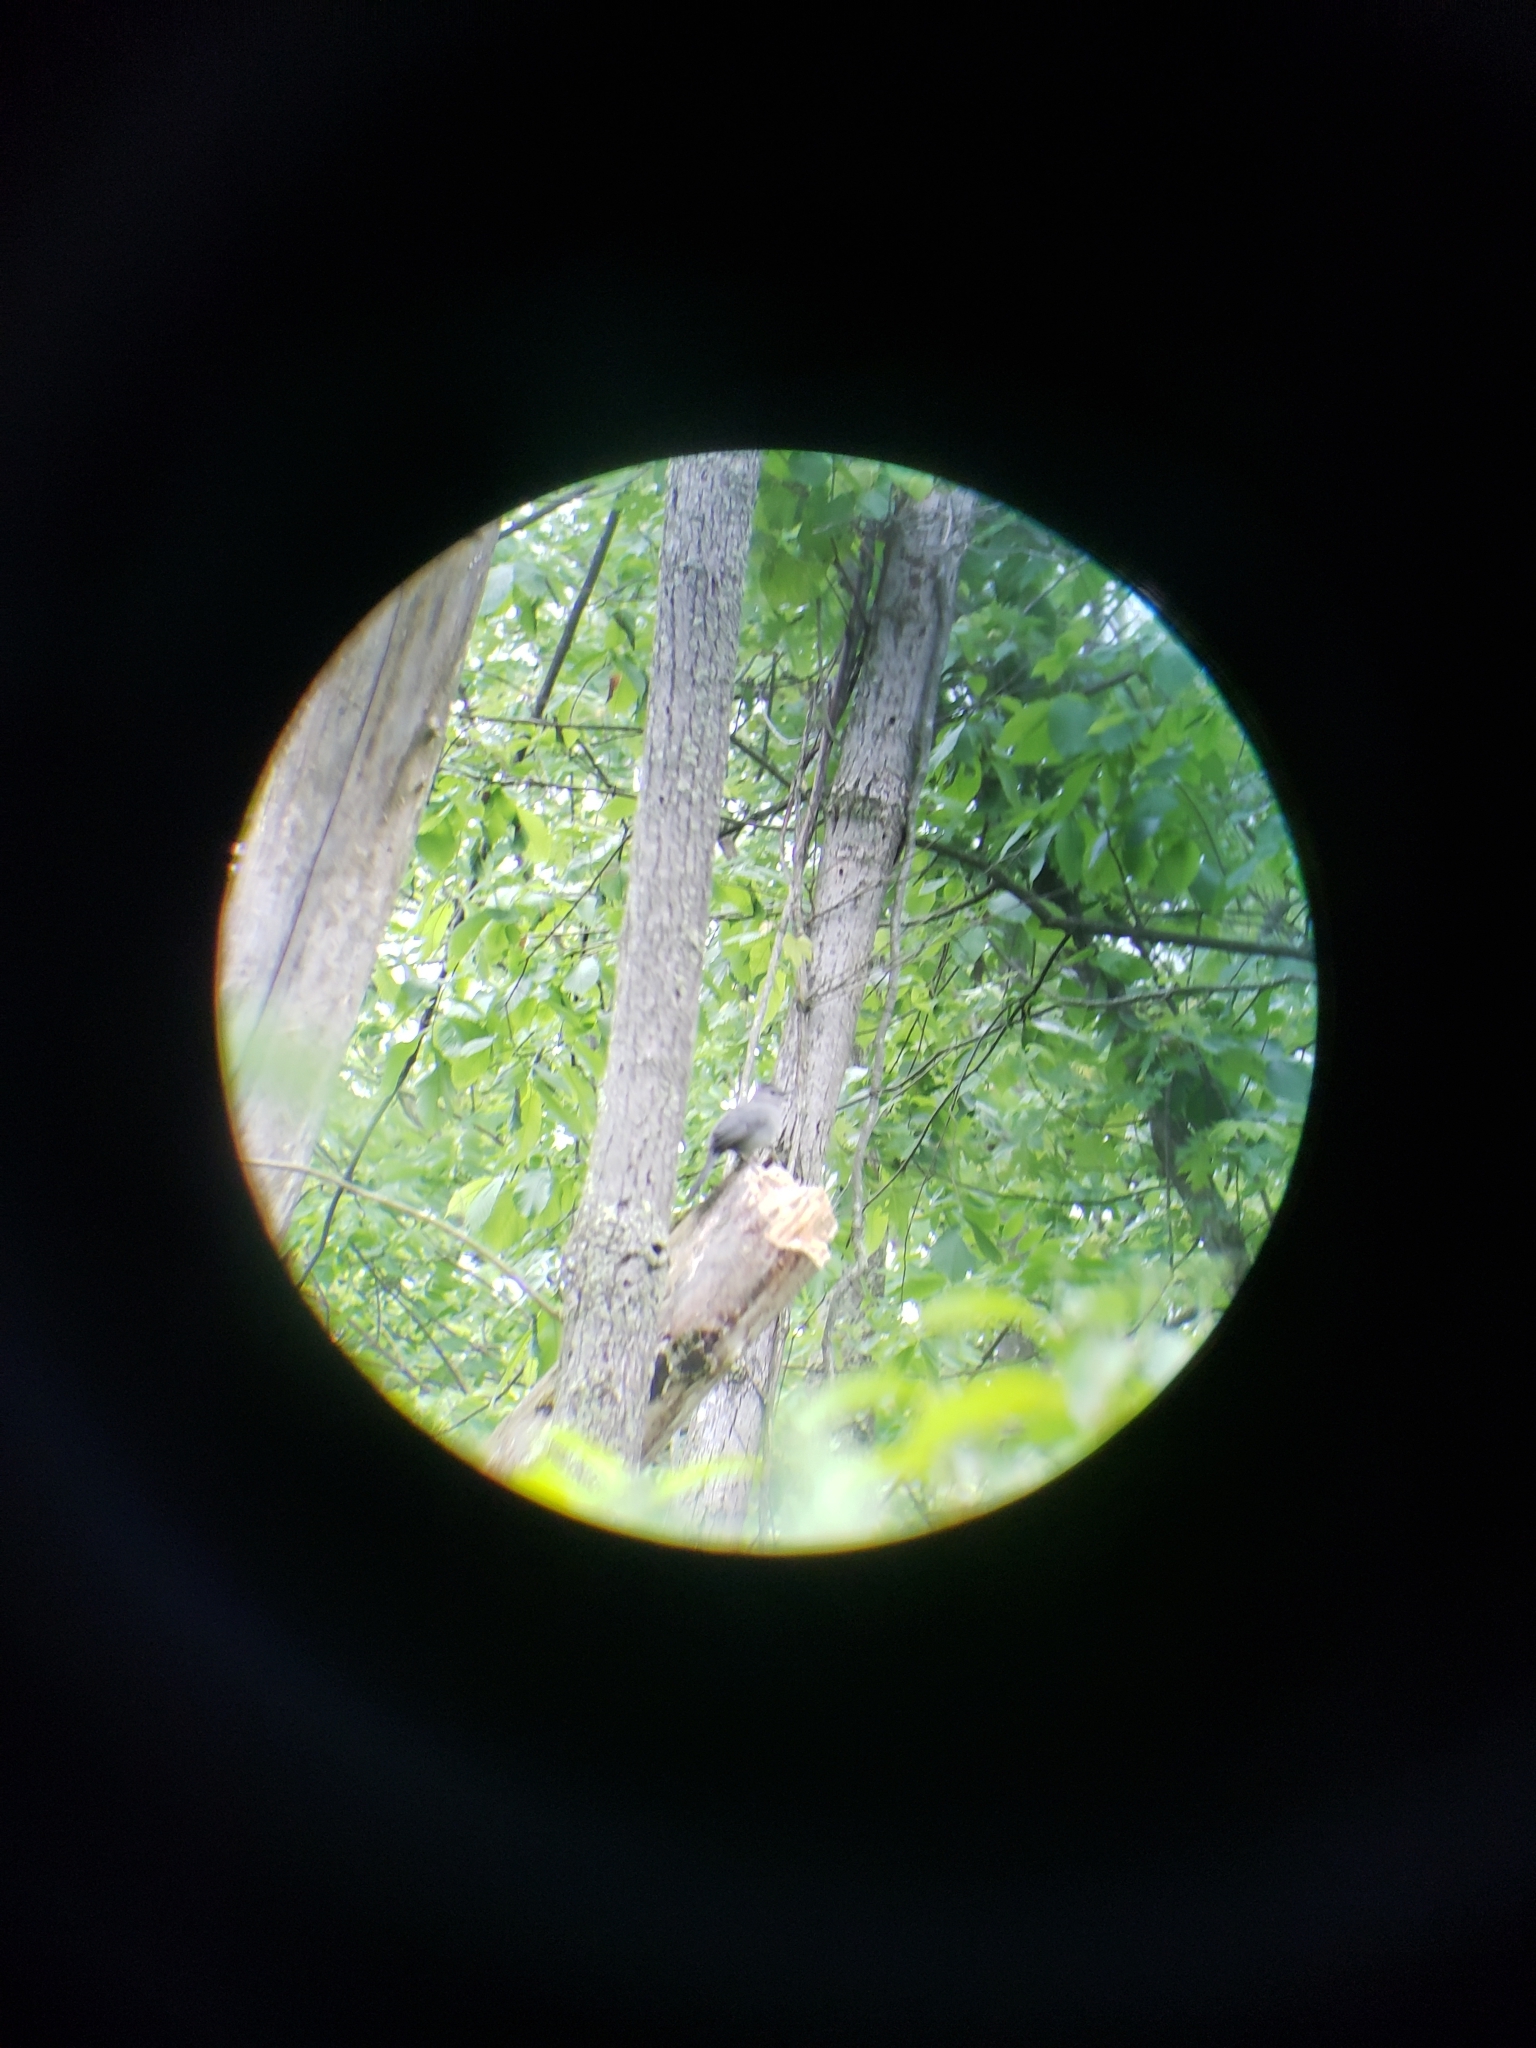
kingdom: Animalia
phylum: Chordata
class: Aves
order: Passeriformes
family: Mimidae
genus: Dumetella
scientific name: Dumetella carolinensis
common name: Gray catbird
